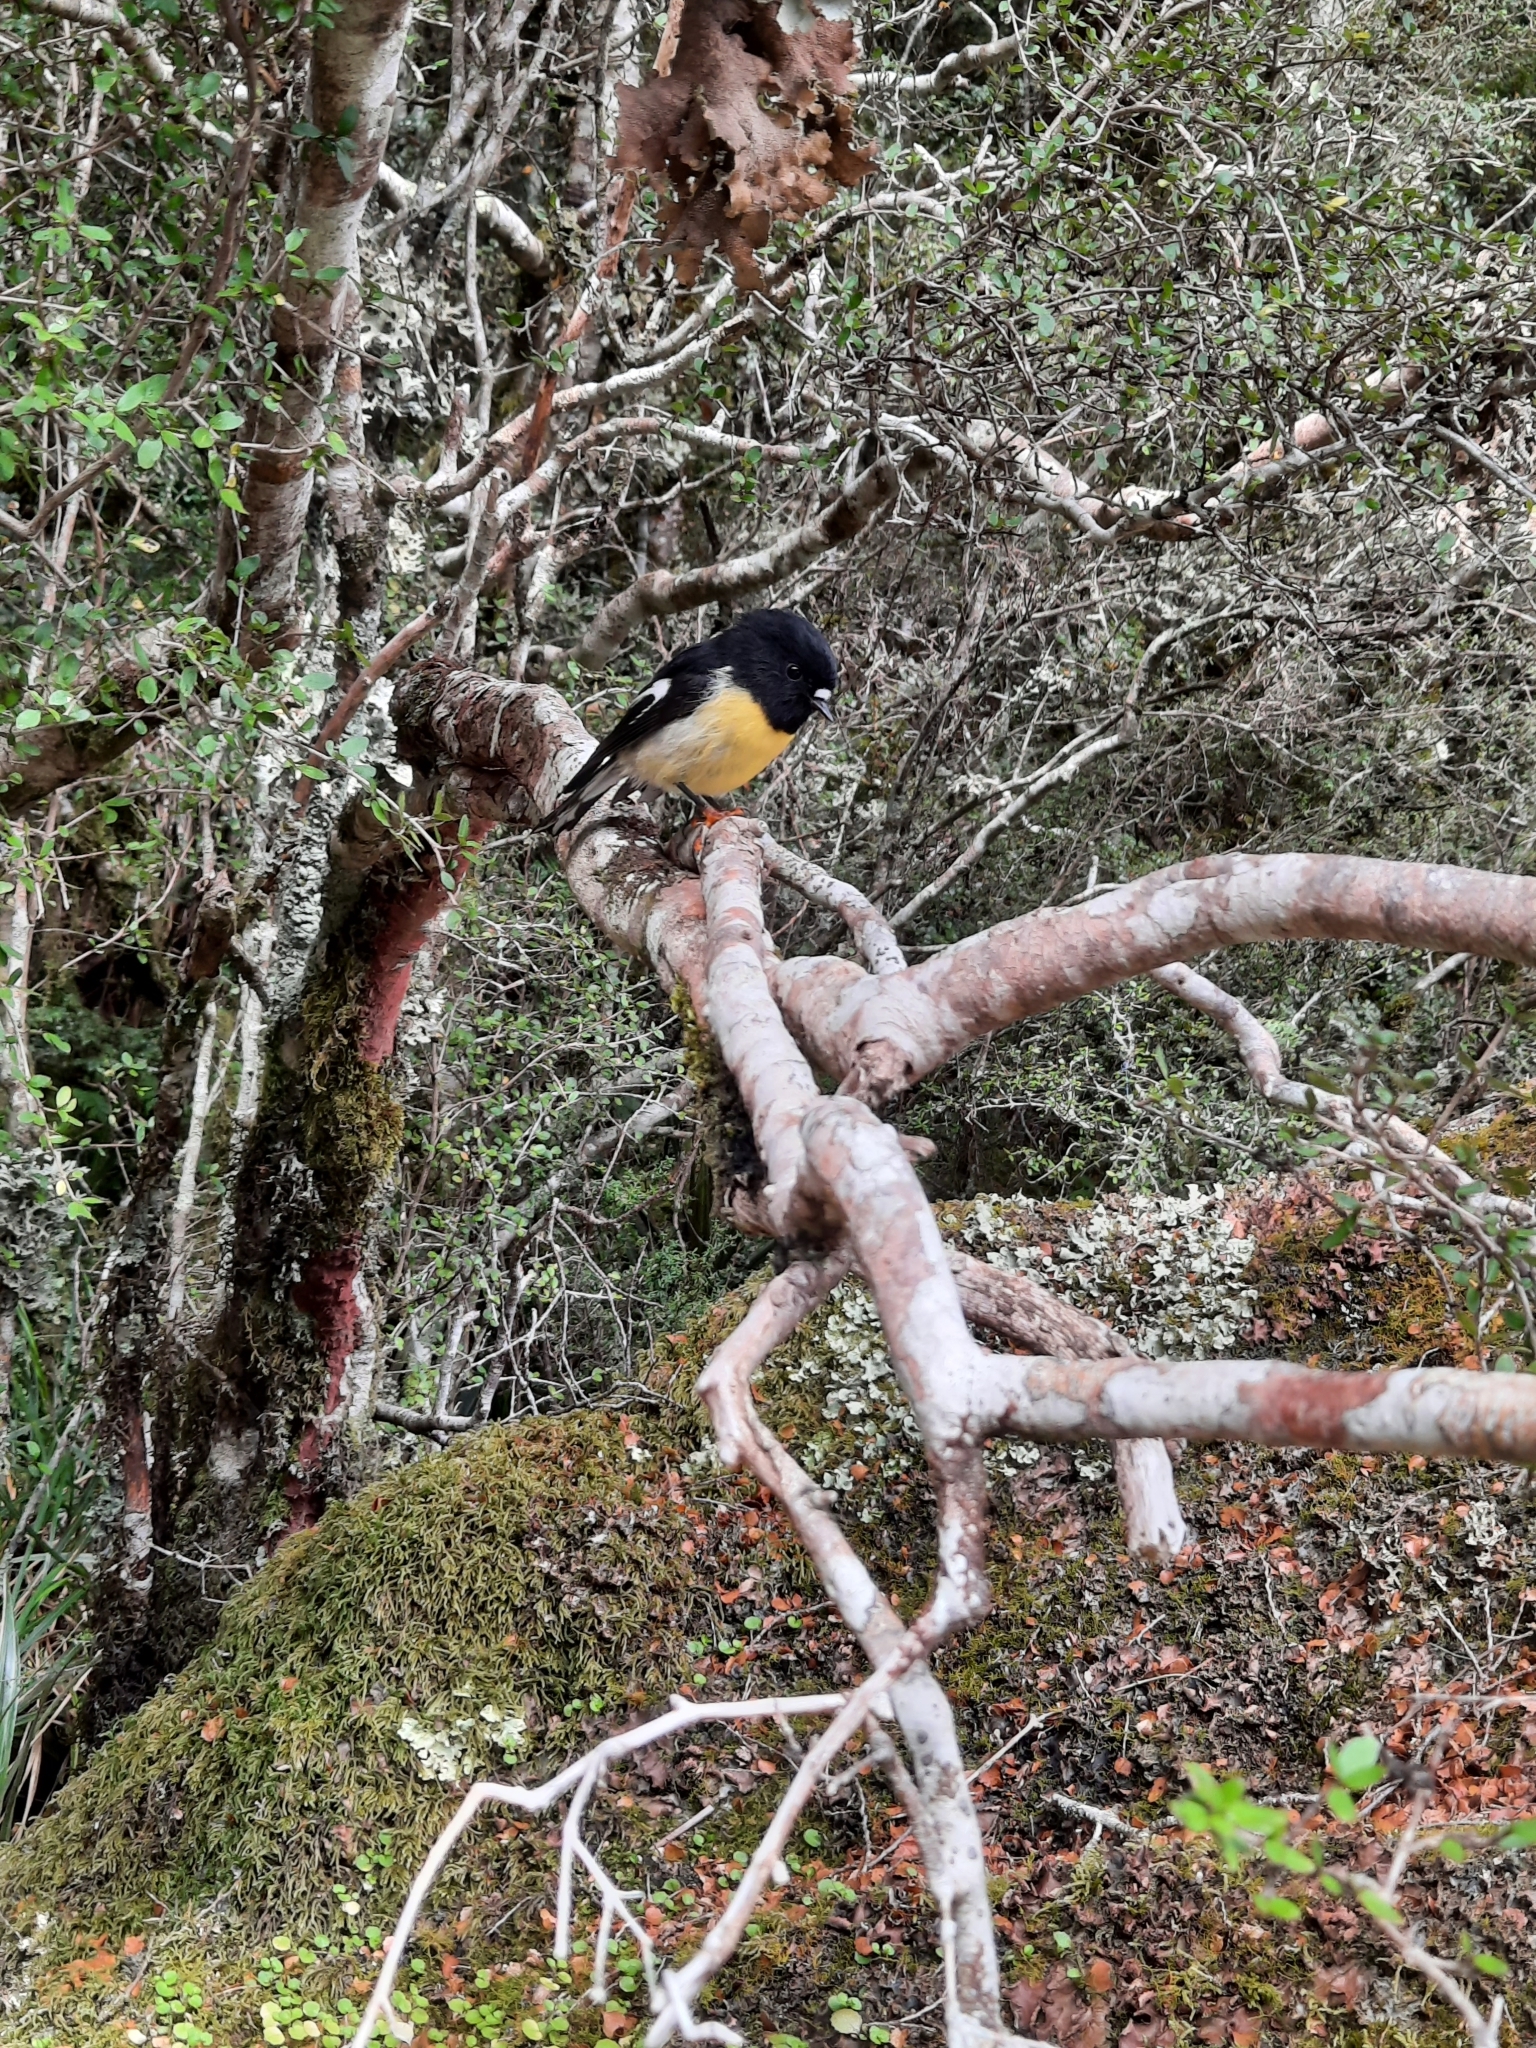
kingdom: Animalia
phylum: Chordata
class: Aves
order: Passeriformes
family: Petroicidae
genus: Petroica
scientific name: Petroica macrocephala
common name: Tomtit
